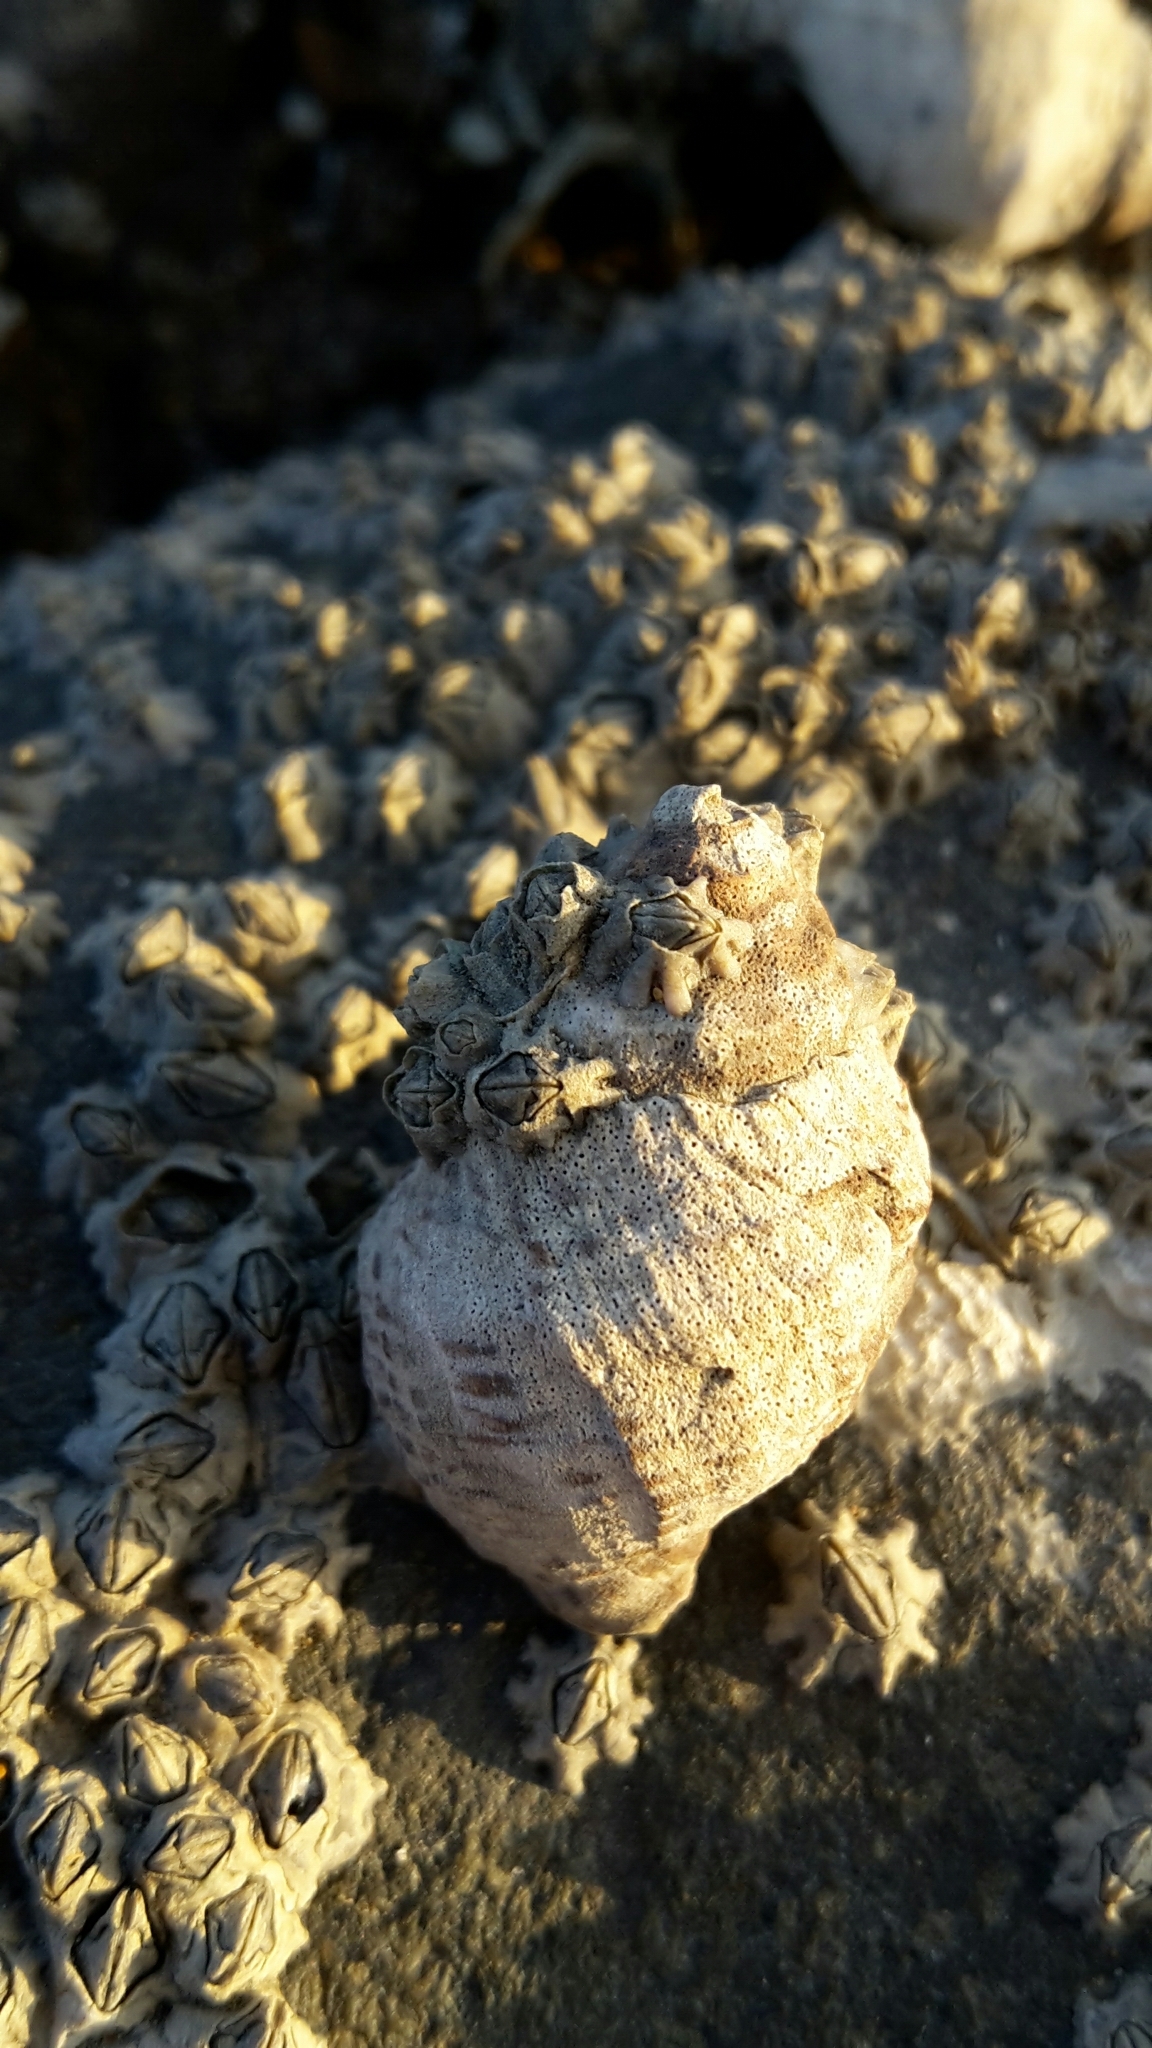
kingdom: Animalia
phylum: Mollusca
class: Gastropoda
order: Neogastropoda
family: Muricidae
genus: Haustrum
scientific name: Haustrum scobina
